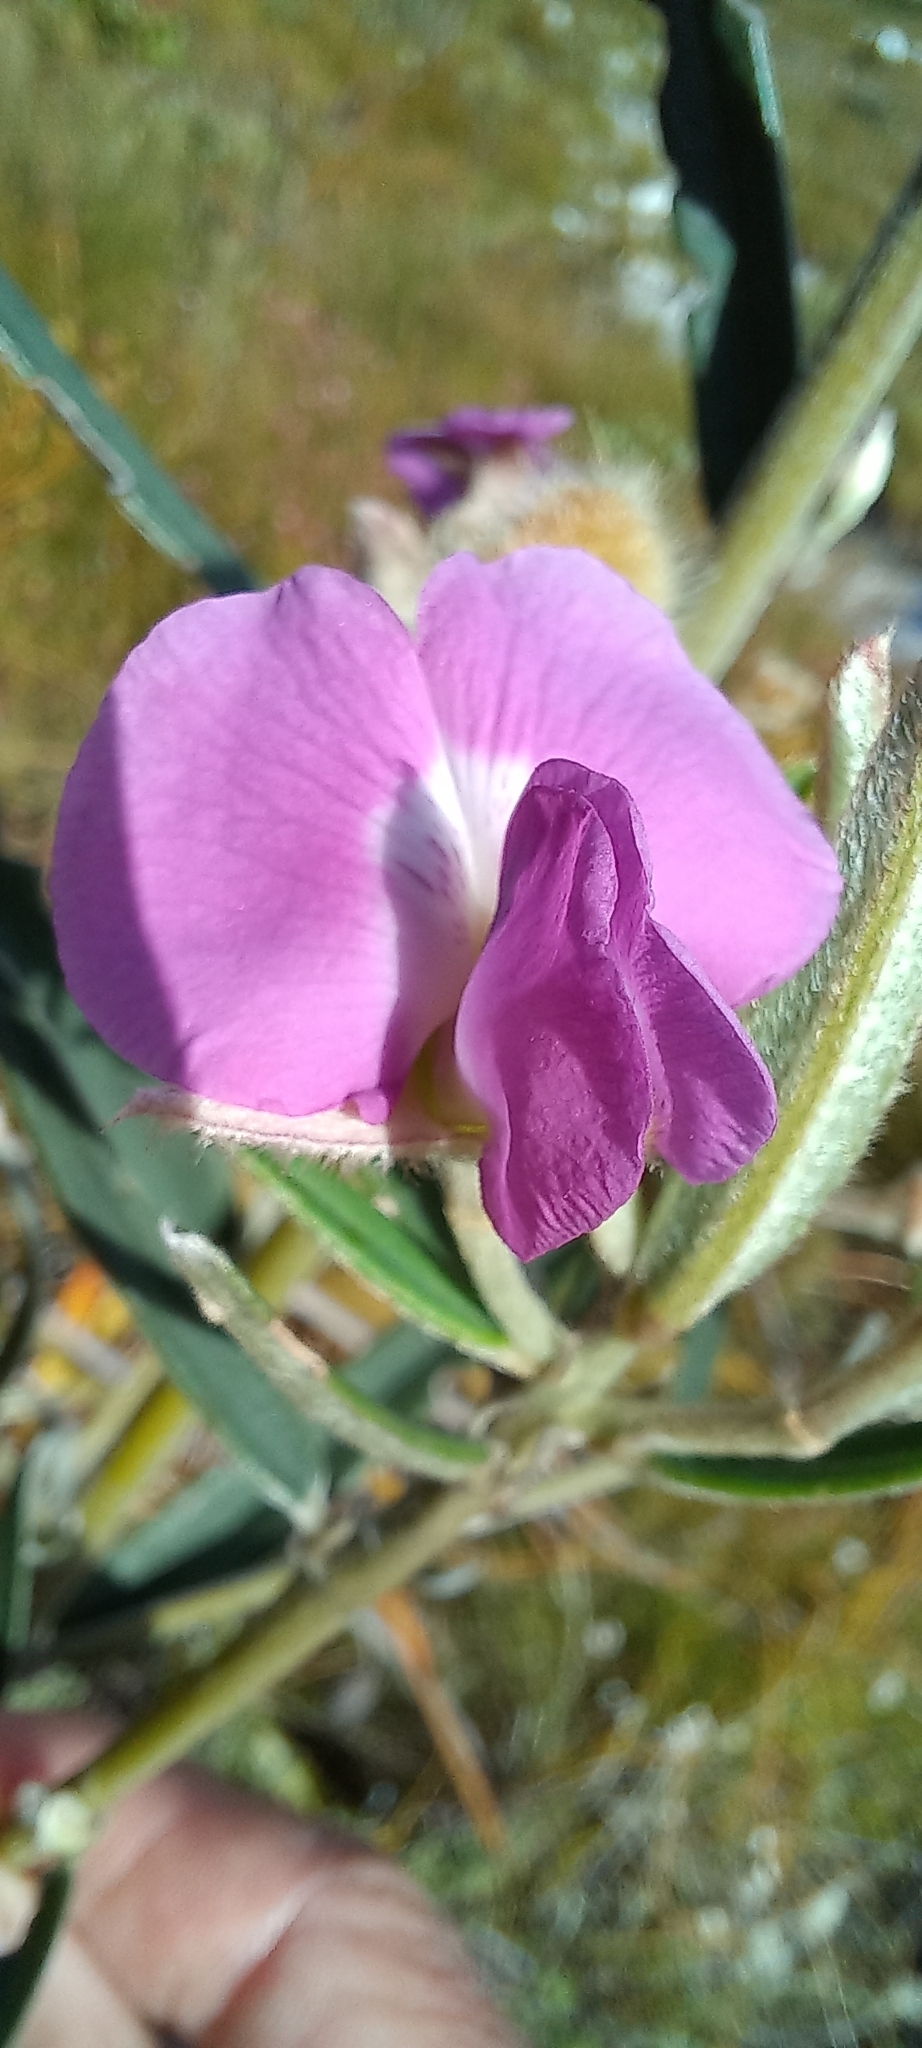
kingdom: Plantae
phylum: Tracheophyta
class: Magnoliopsida
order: Fabales
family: Fabaceae
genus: Podalyria
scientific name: Podalyria oleifolia
